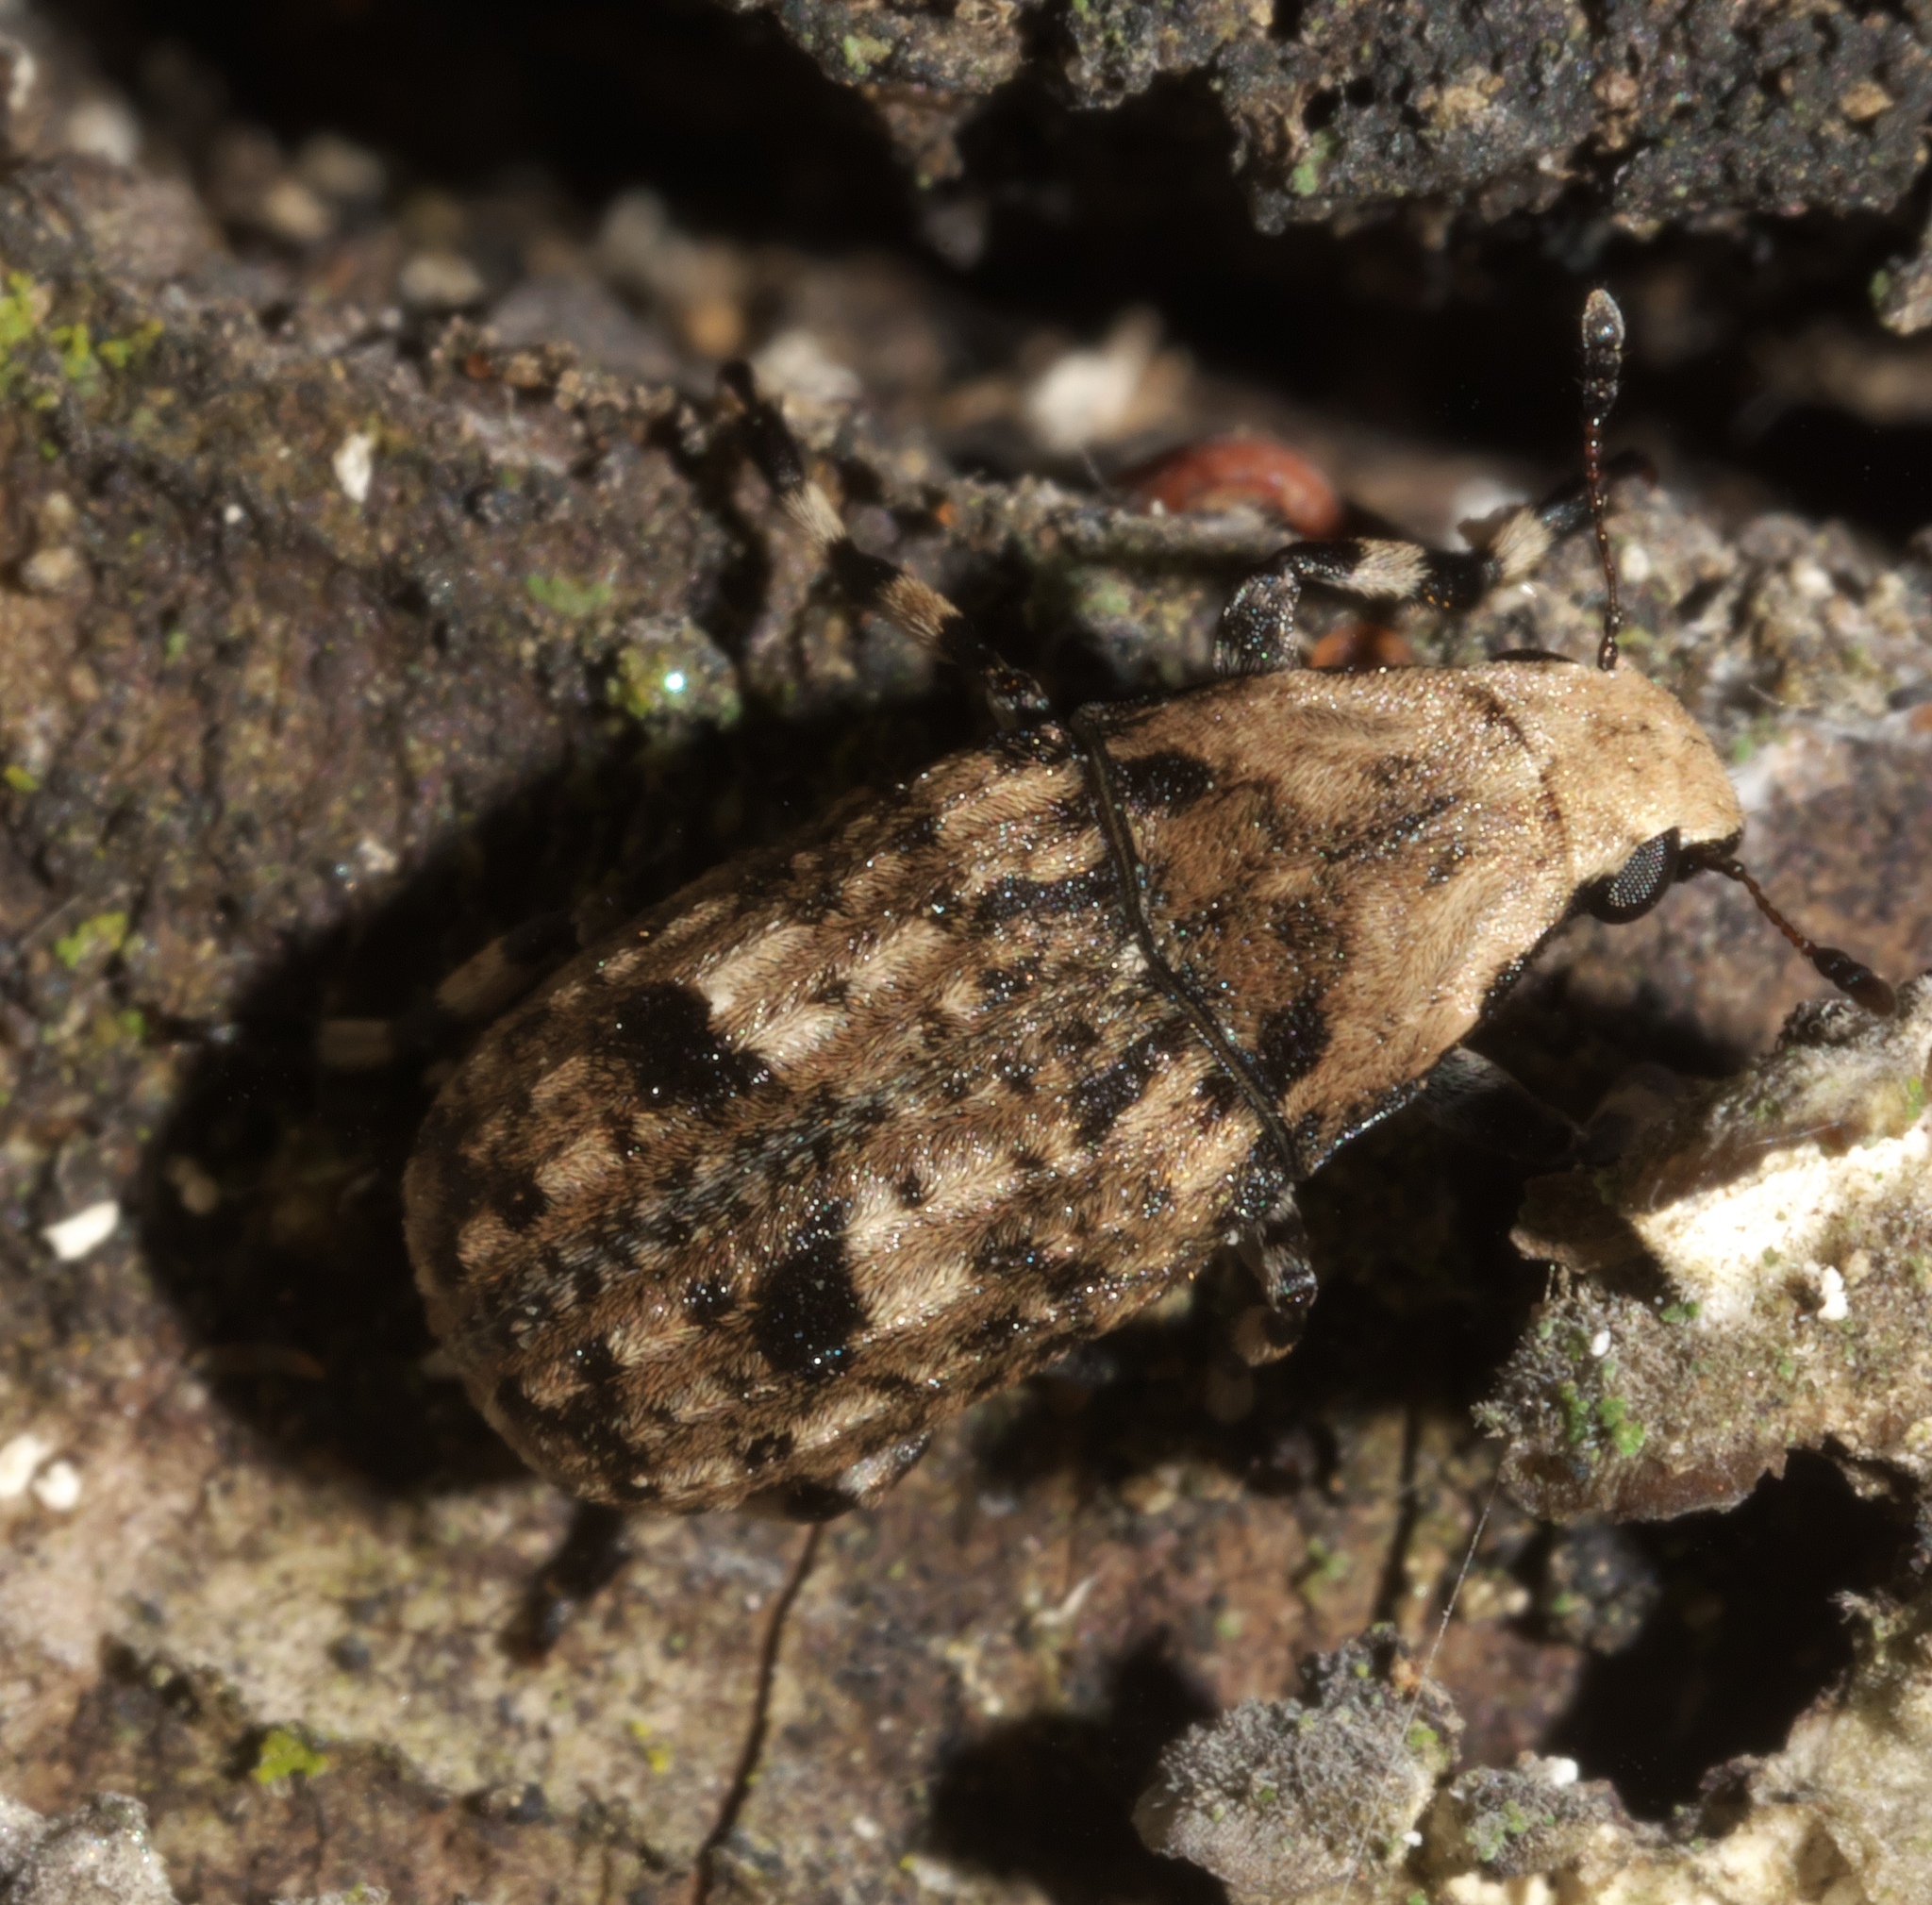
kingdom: Animalia
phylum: Arthropoda
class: Insecta
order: Coleoptera
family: Anthribidae
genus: Euparius
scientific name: Euparius marmoreus
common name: Marbled fungus weevil
